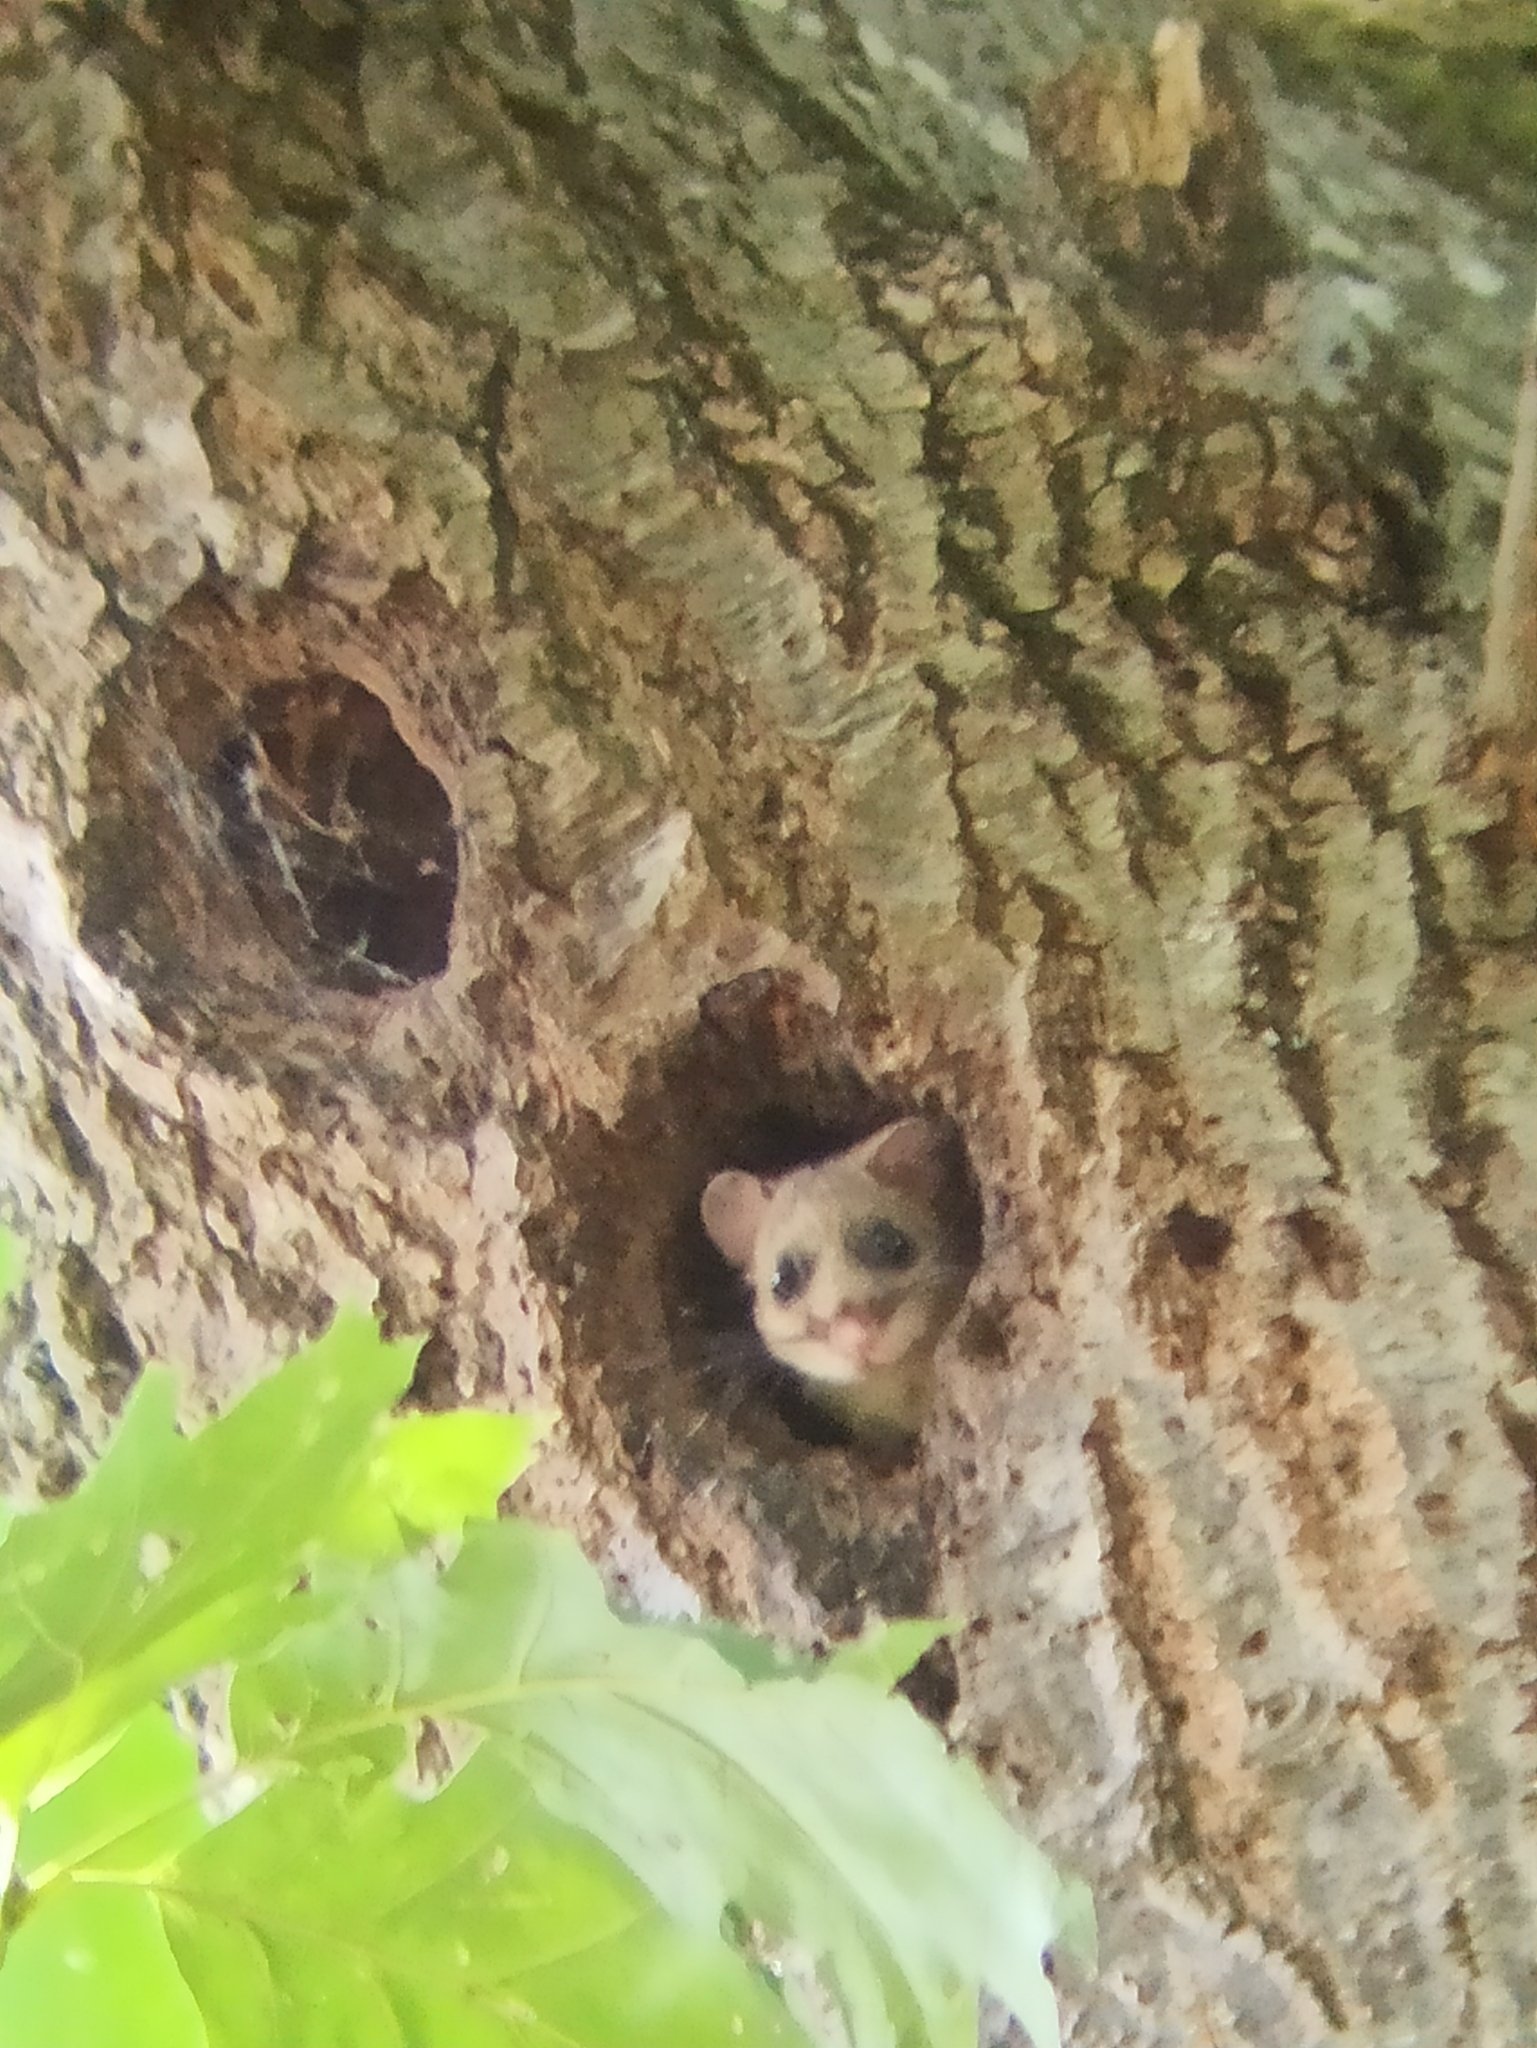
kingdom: Animalia
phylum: Chordata
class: Mammalia
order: Rodentia
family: Gliridae
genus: Glis
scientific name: Glis glis
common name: Fat dormouse
